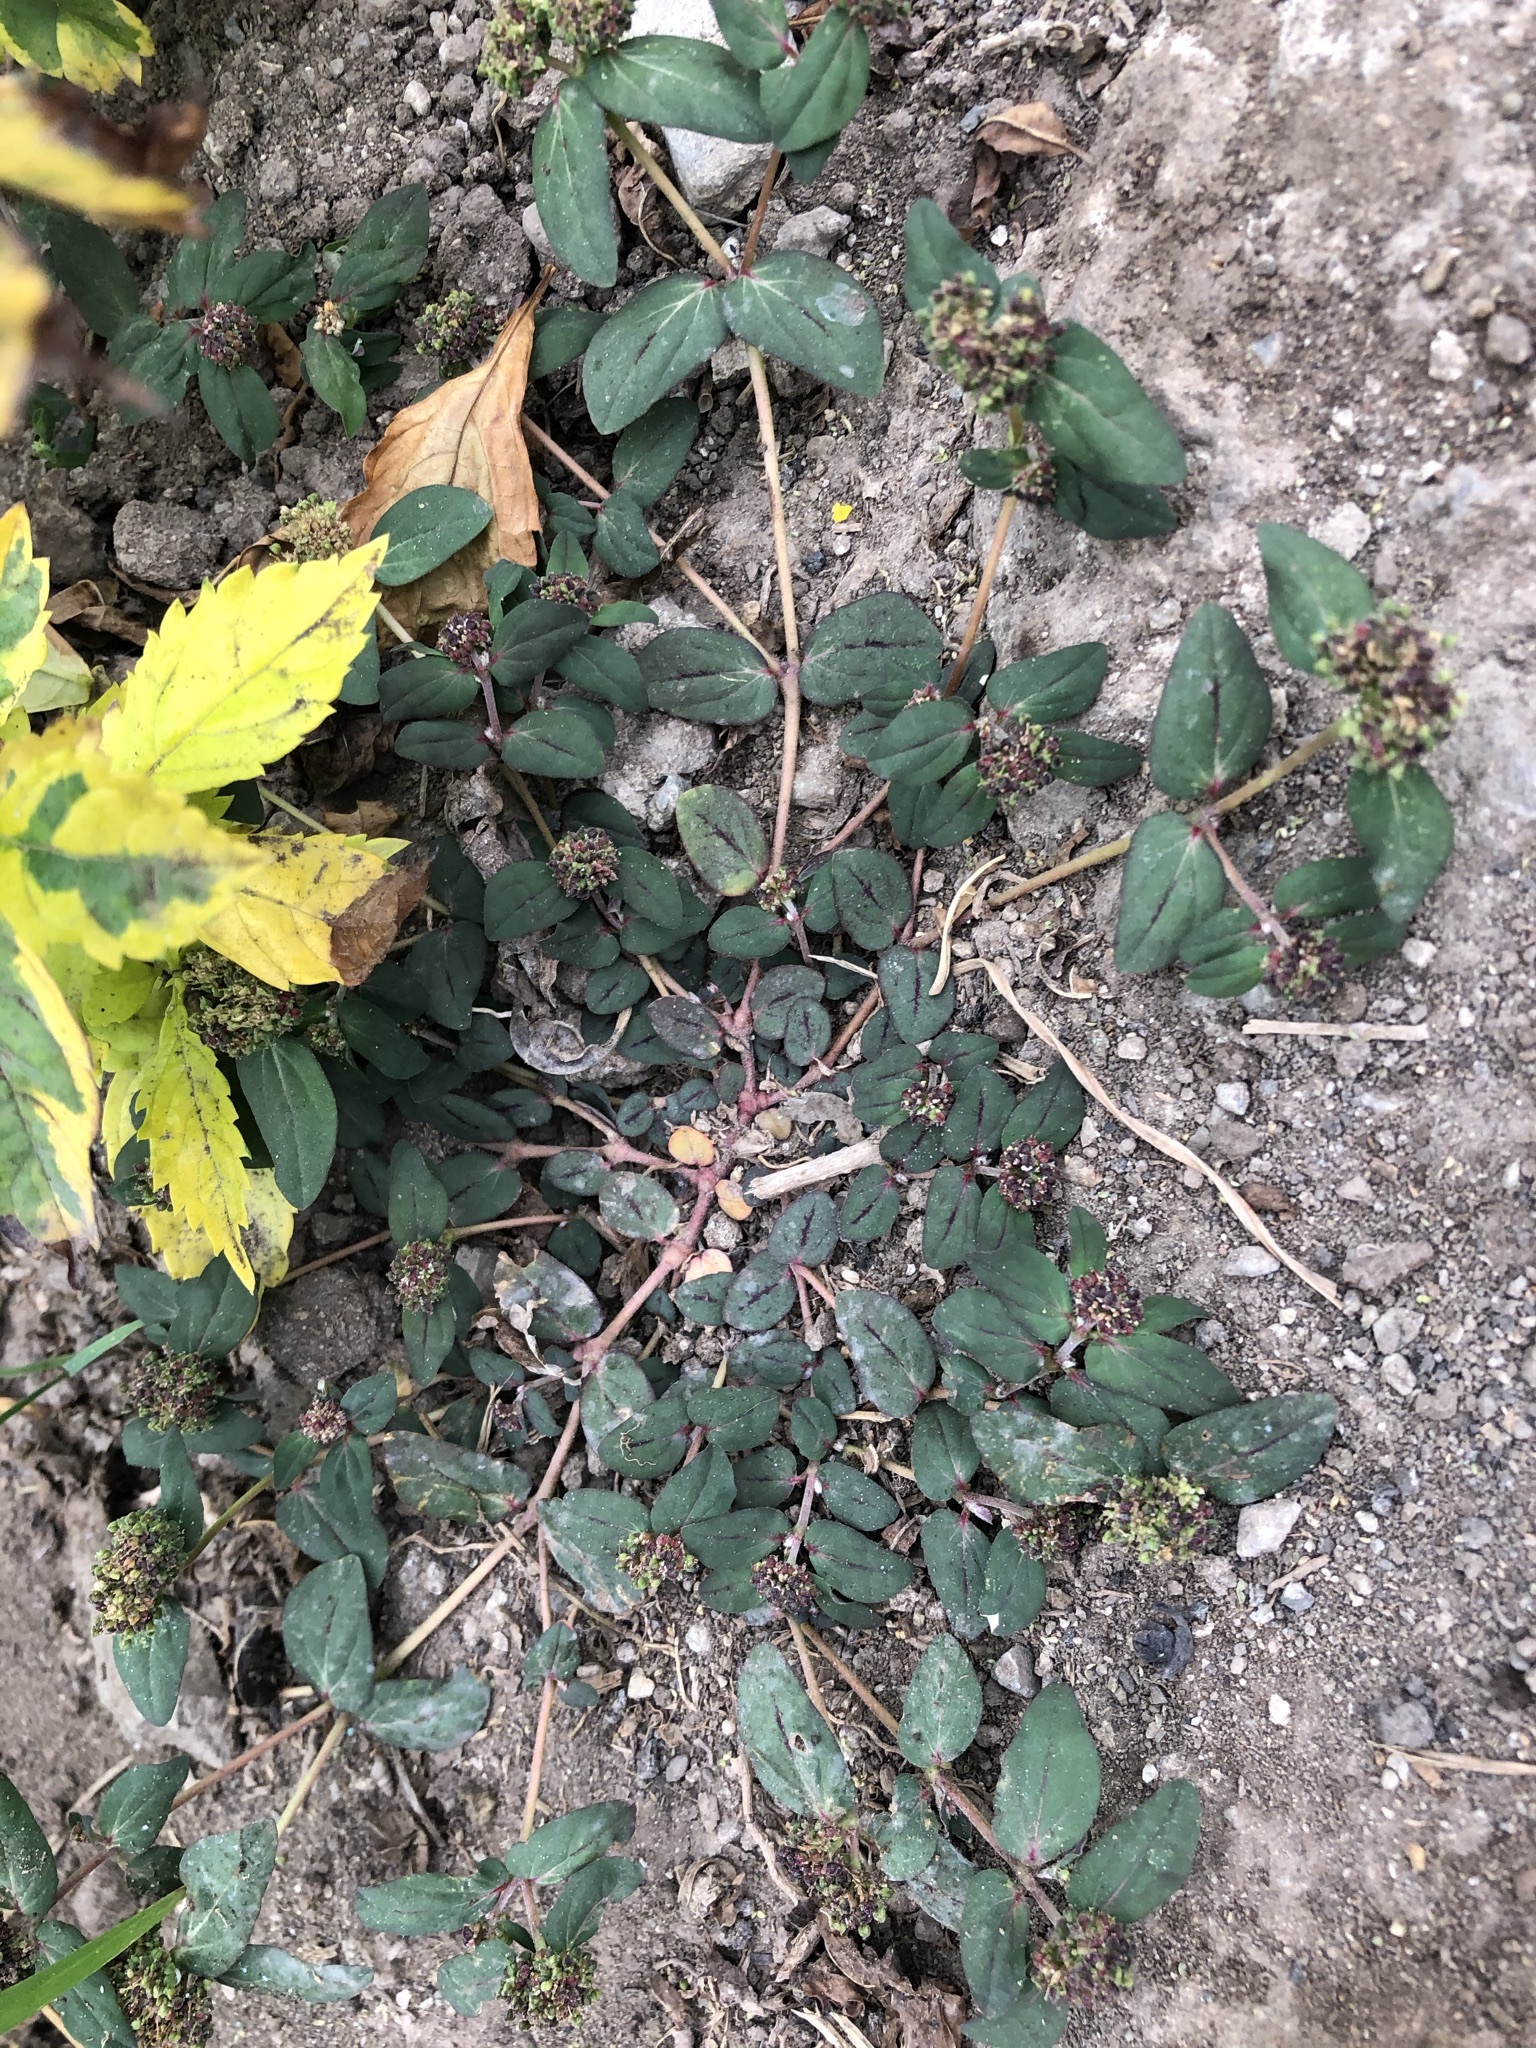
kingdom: Plantae
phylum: Tracheophyta
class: Magnoliopsida
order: Malpighiales
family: Euphorbiaceae
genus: Euphorbia
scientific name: Euphorbia ophthalmica
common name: Florida hammock sandmat
